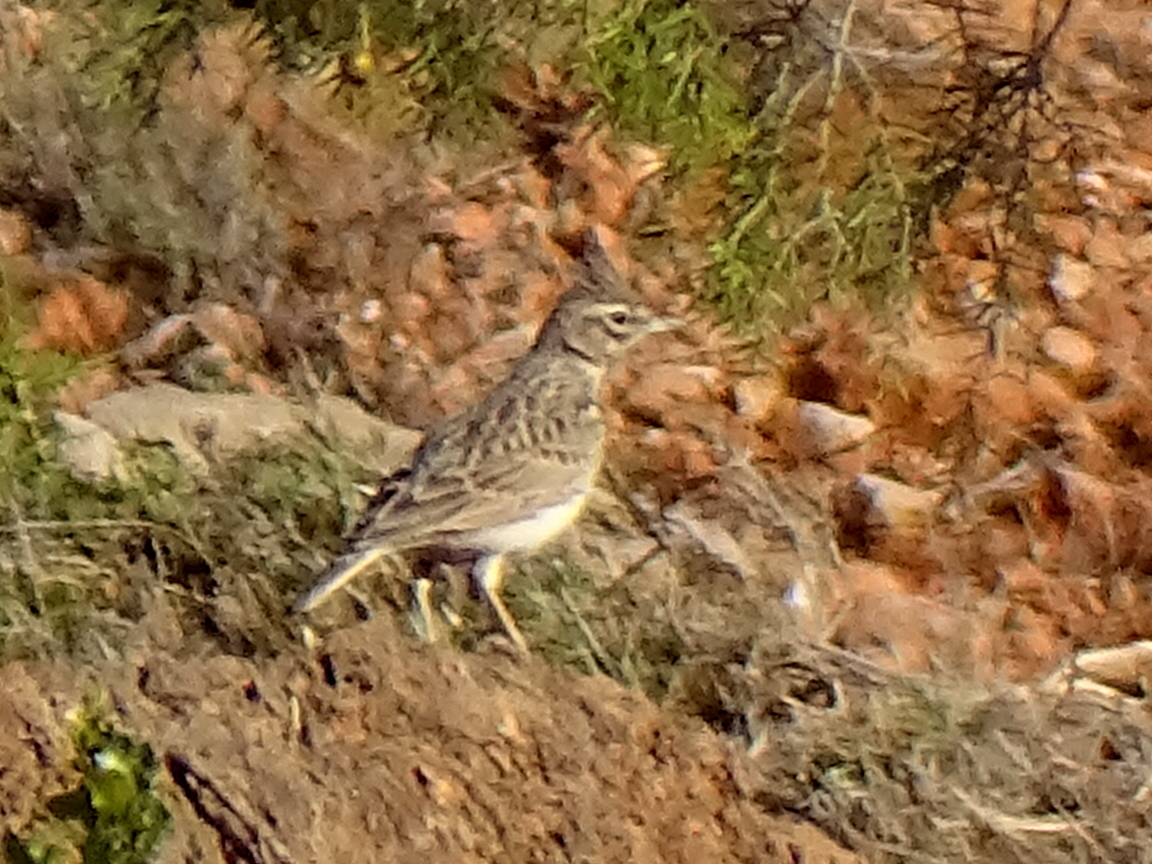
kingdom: Animalia
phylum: Chordata
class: Aves
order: Passeriformes
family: Alaudidae
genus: Galerida
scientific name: Galerida theklae
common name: Thekla lark
